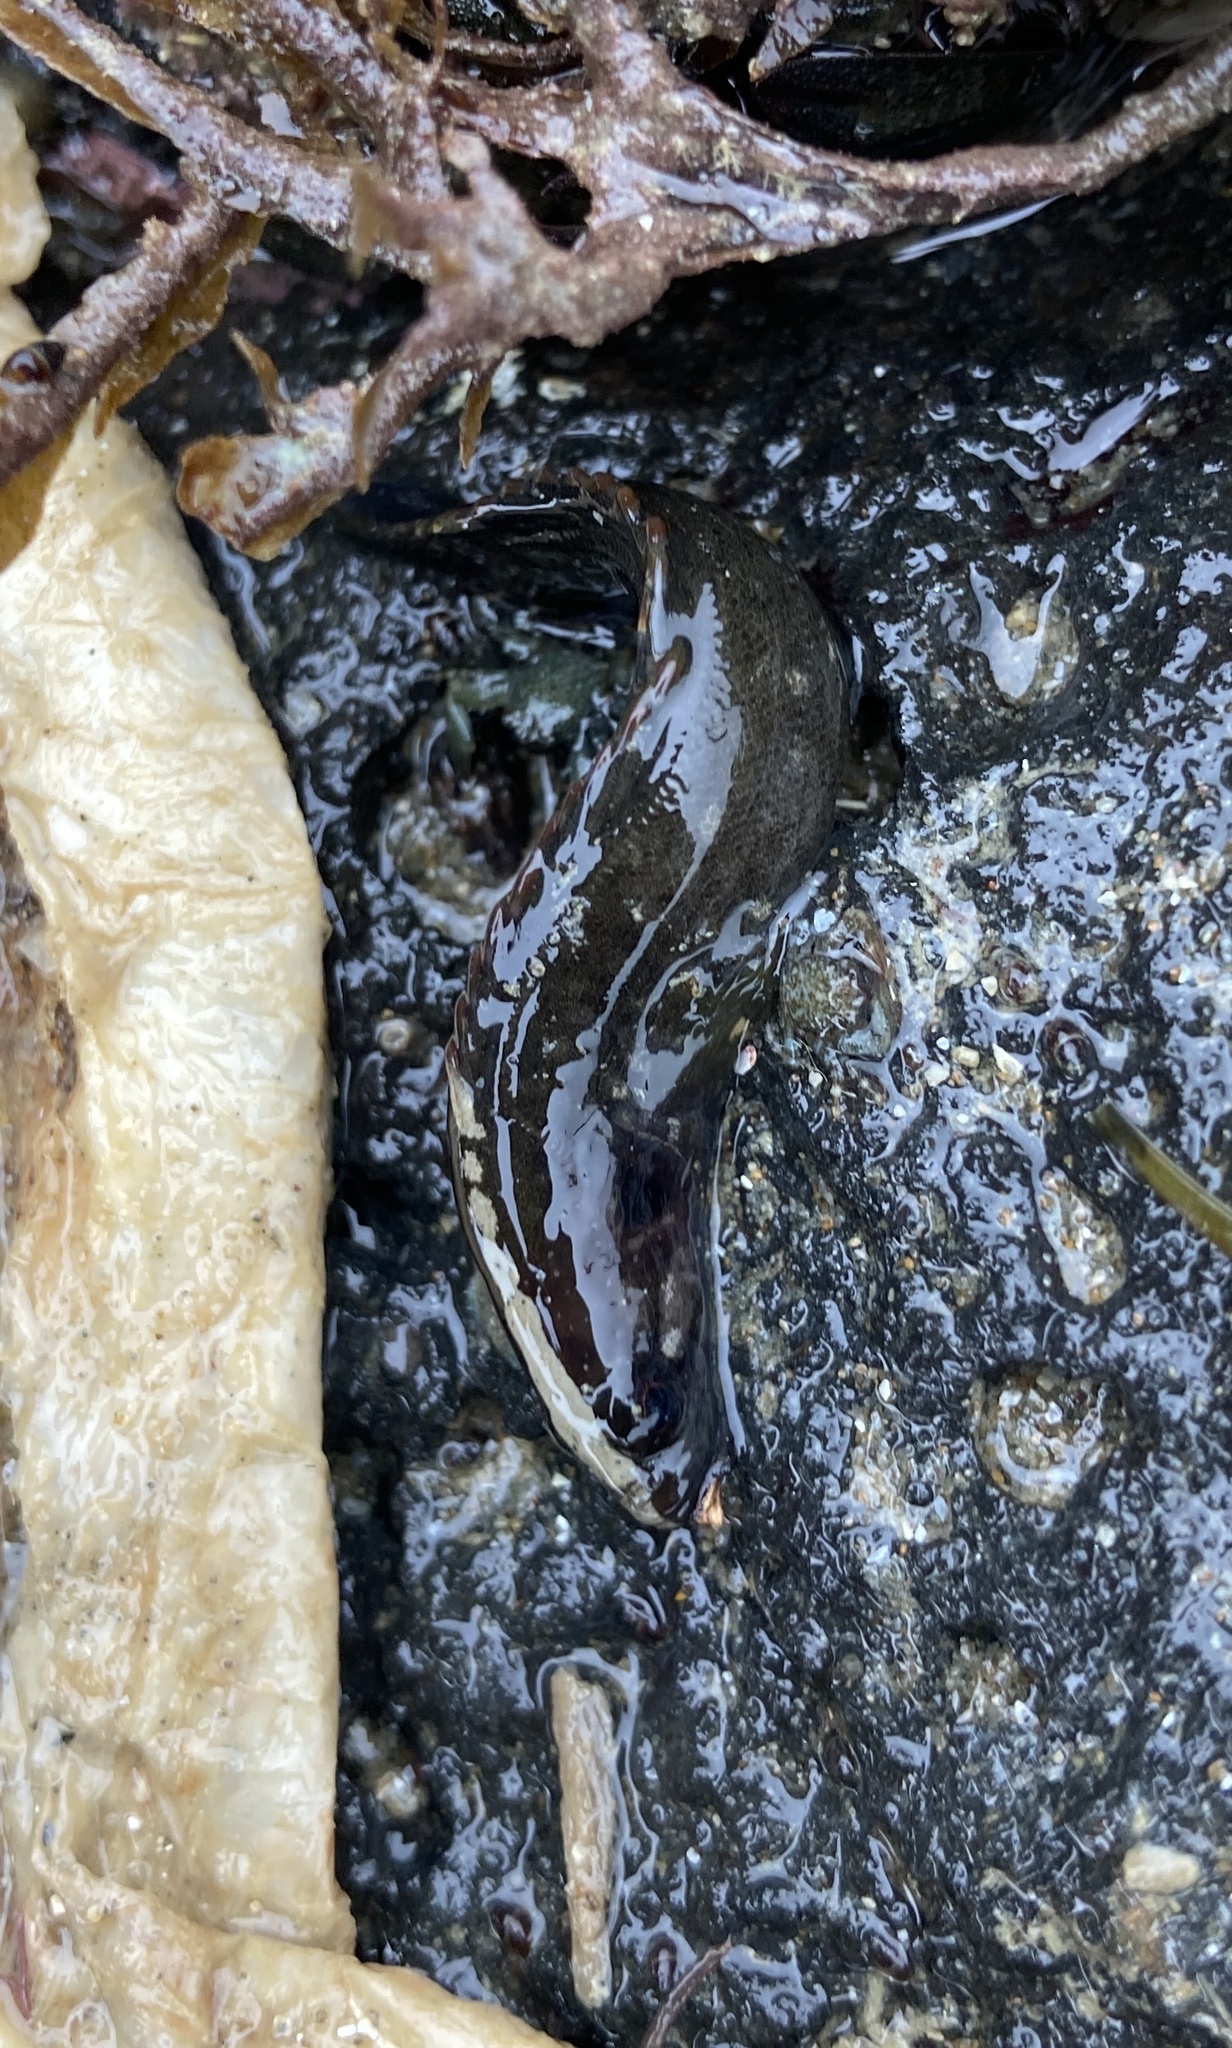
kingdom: Animalia
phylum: Chordata
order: Perciformes
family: Plesiopidae
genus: Acanthoclinus
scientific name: Acanthoclinus fuscus
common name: Olive rockfish
